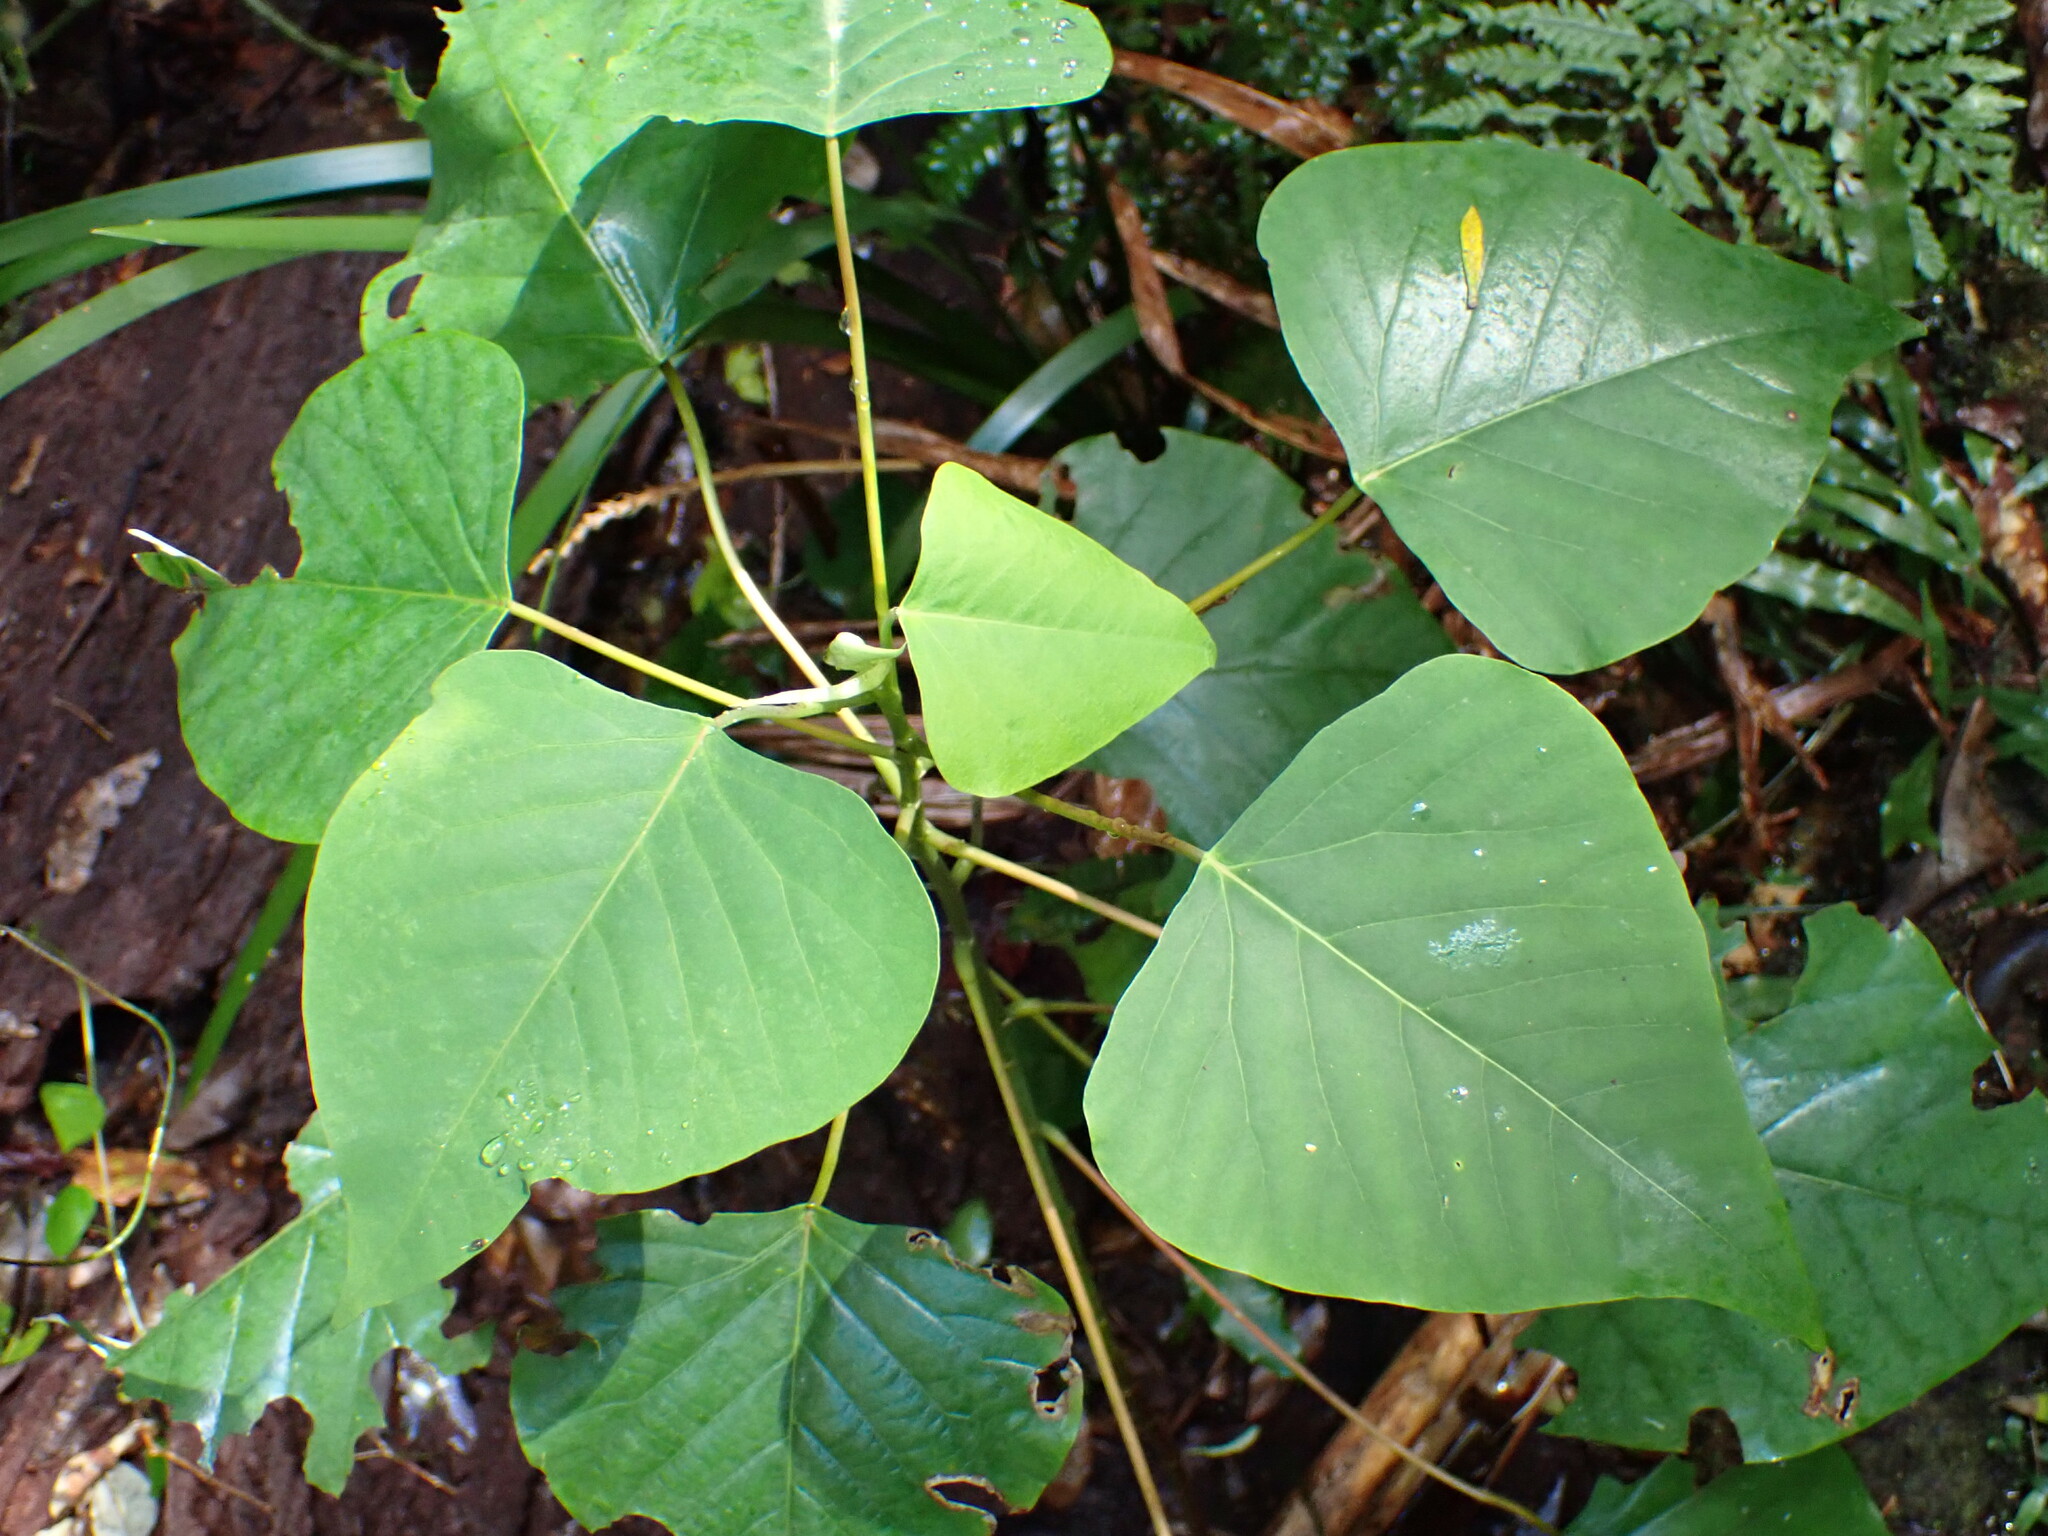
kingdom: Plantae
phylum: Tracheophyta
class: Magnoliopsida
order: Malpighiales
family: Euphorbiaceae
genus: Homalanthus
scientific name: Homalanthus populifolius
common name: Queensland poplar
